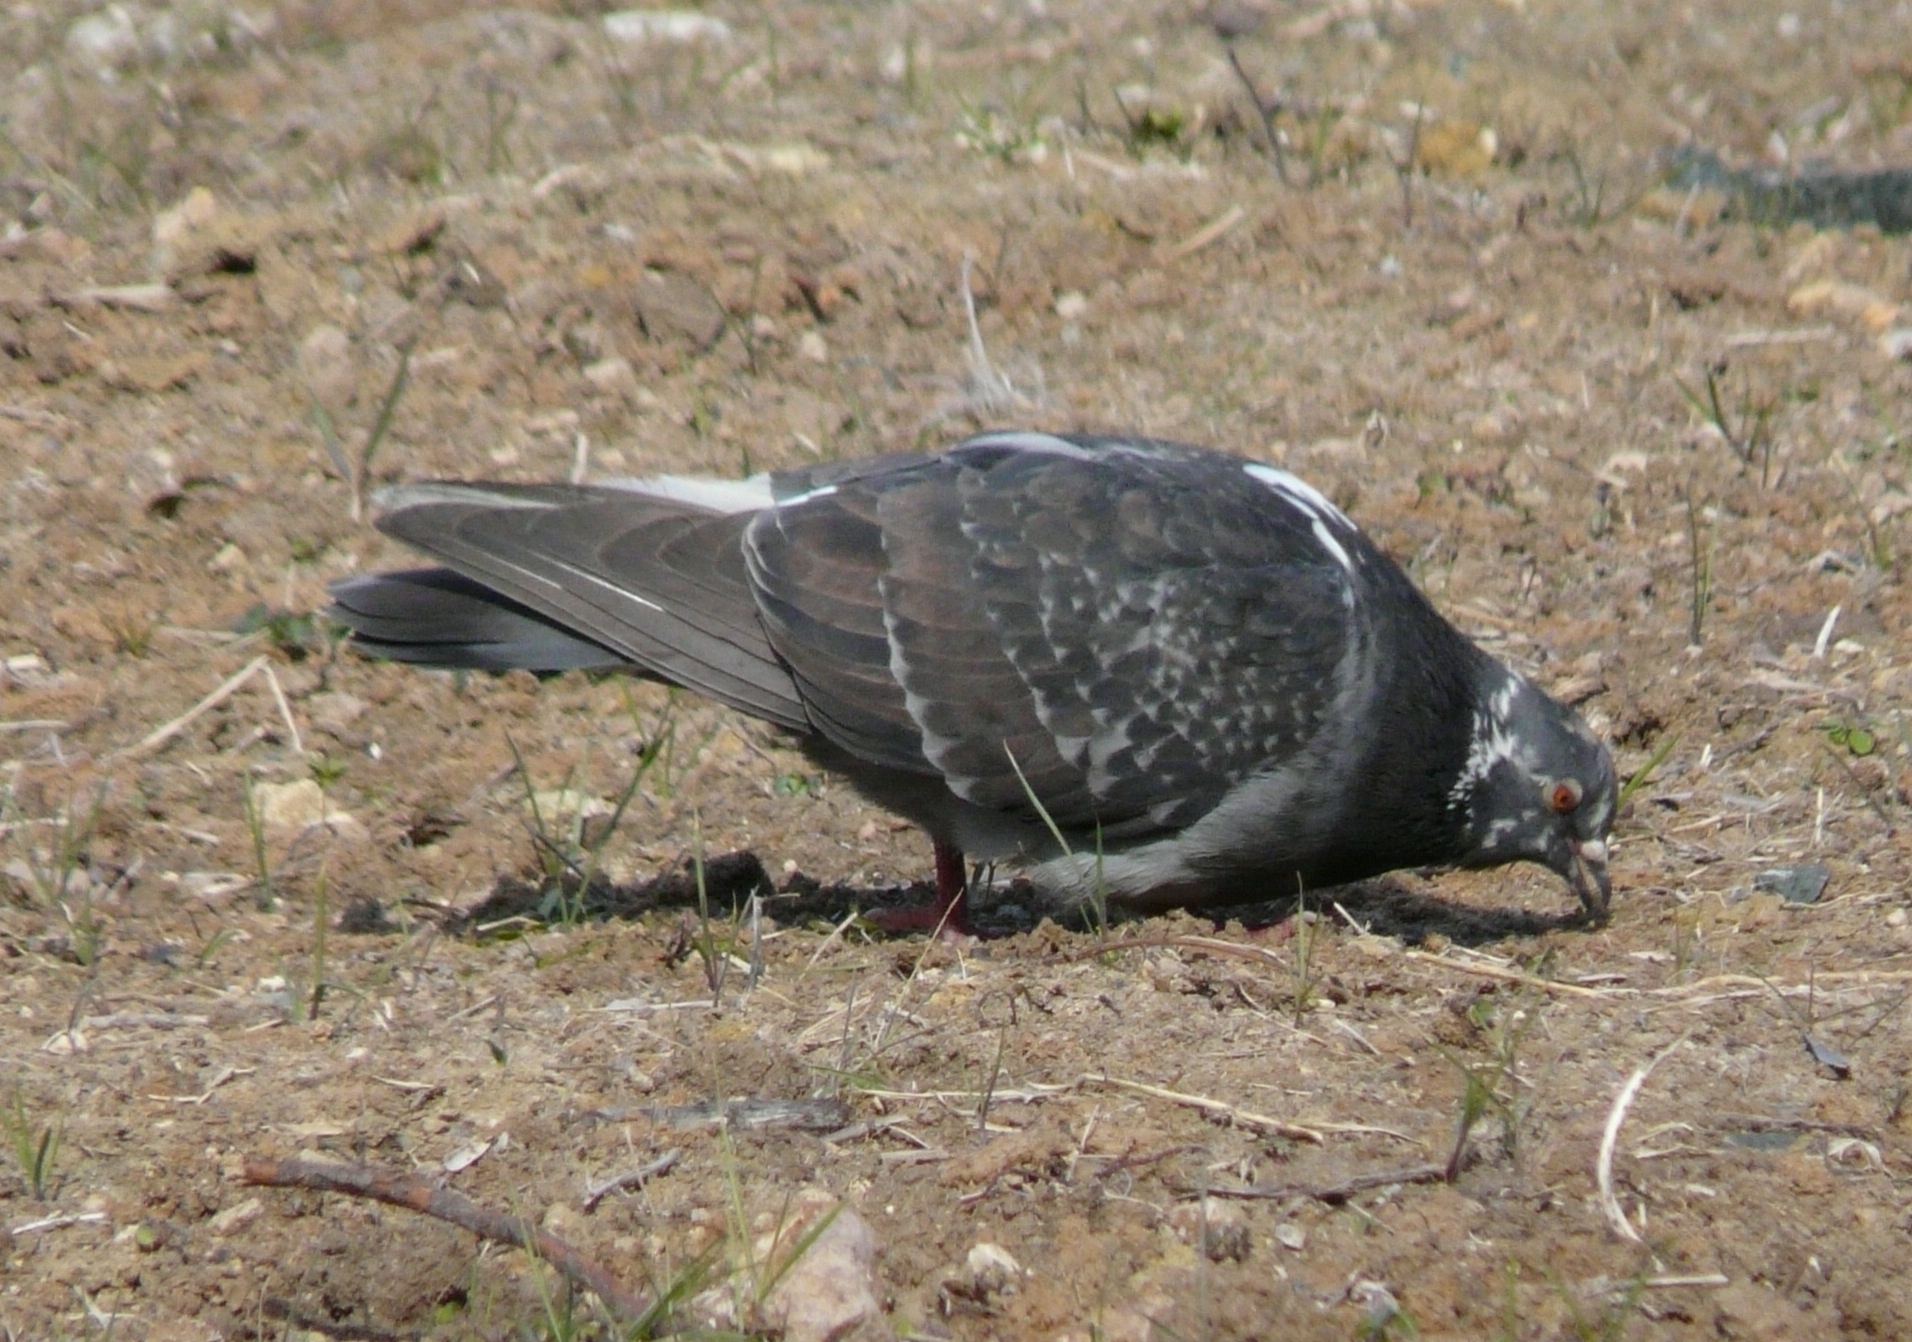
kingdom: Animalia
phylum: Chordata
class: Aves
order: Columbiformes
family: Columbidae
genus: Columba
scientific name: Columba livia
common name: Rock pigeon
